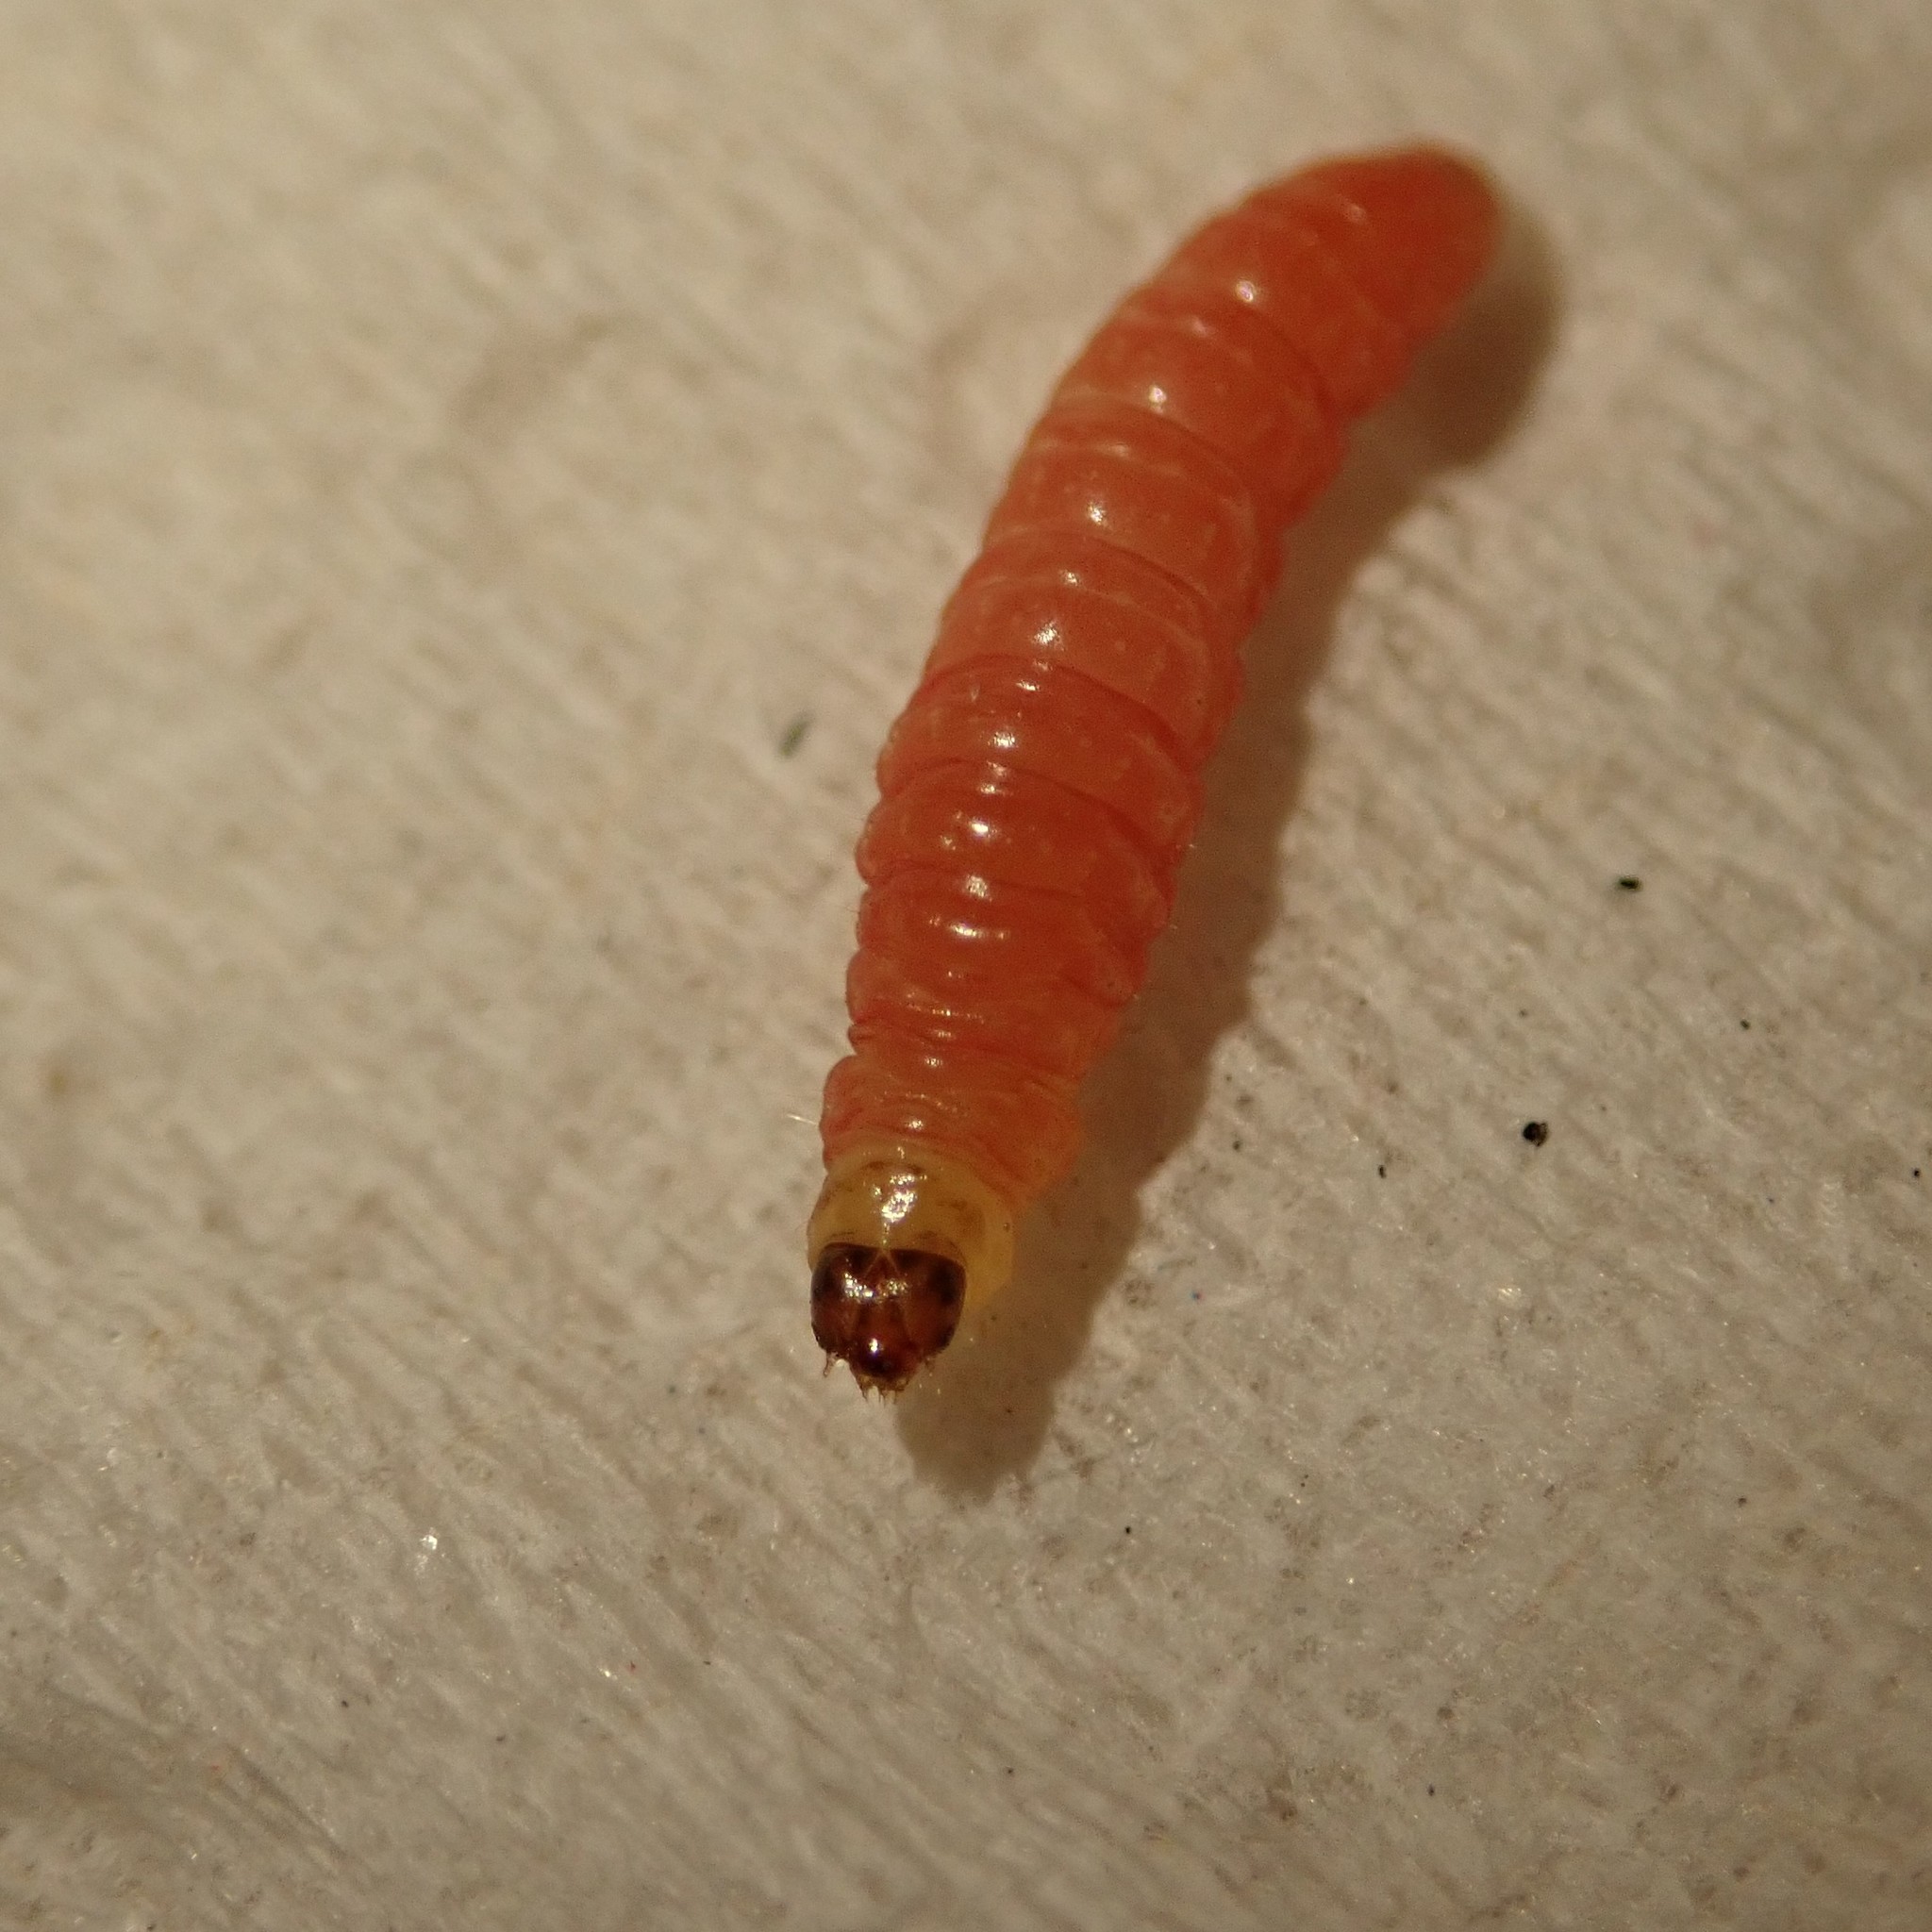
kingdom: Animalia
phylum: Arthropoda
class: Insecta
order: Lepidoptera
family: Noctuidae
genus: Aspila
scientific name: Aspila
